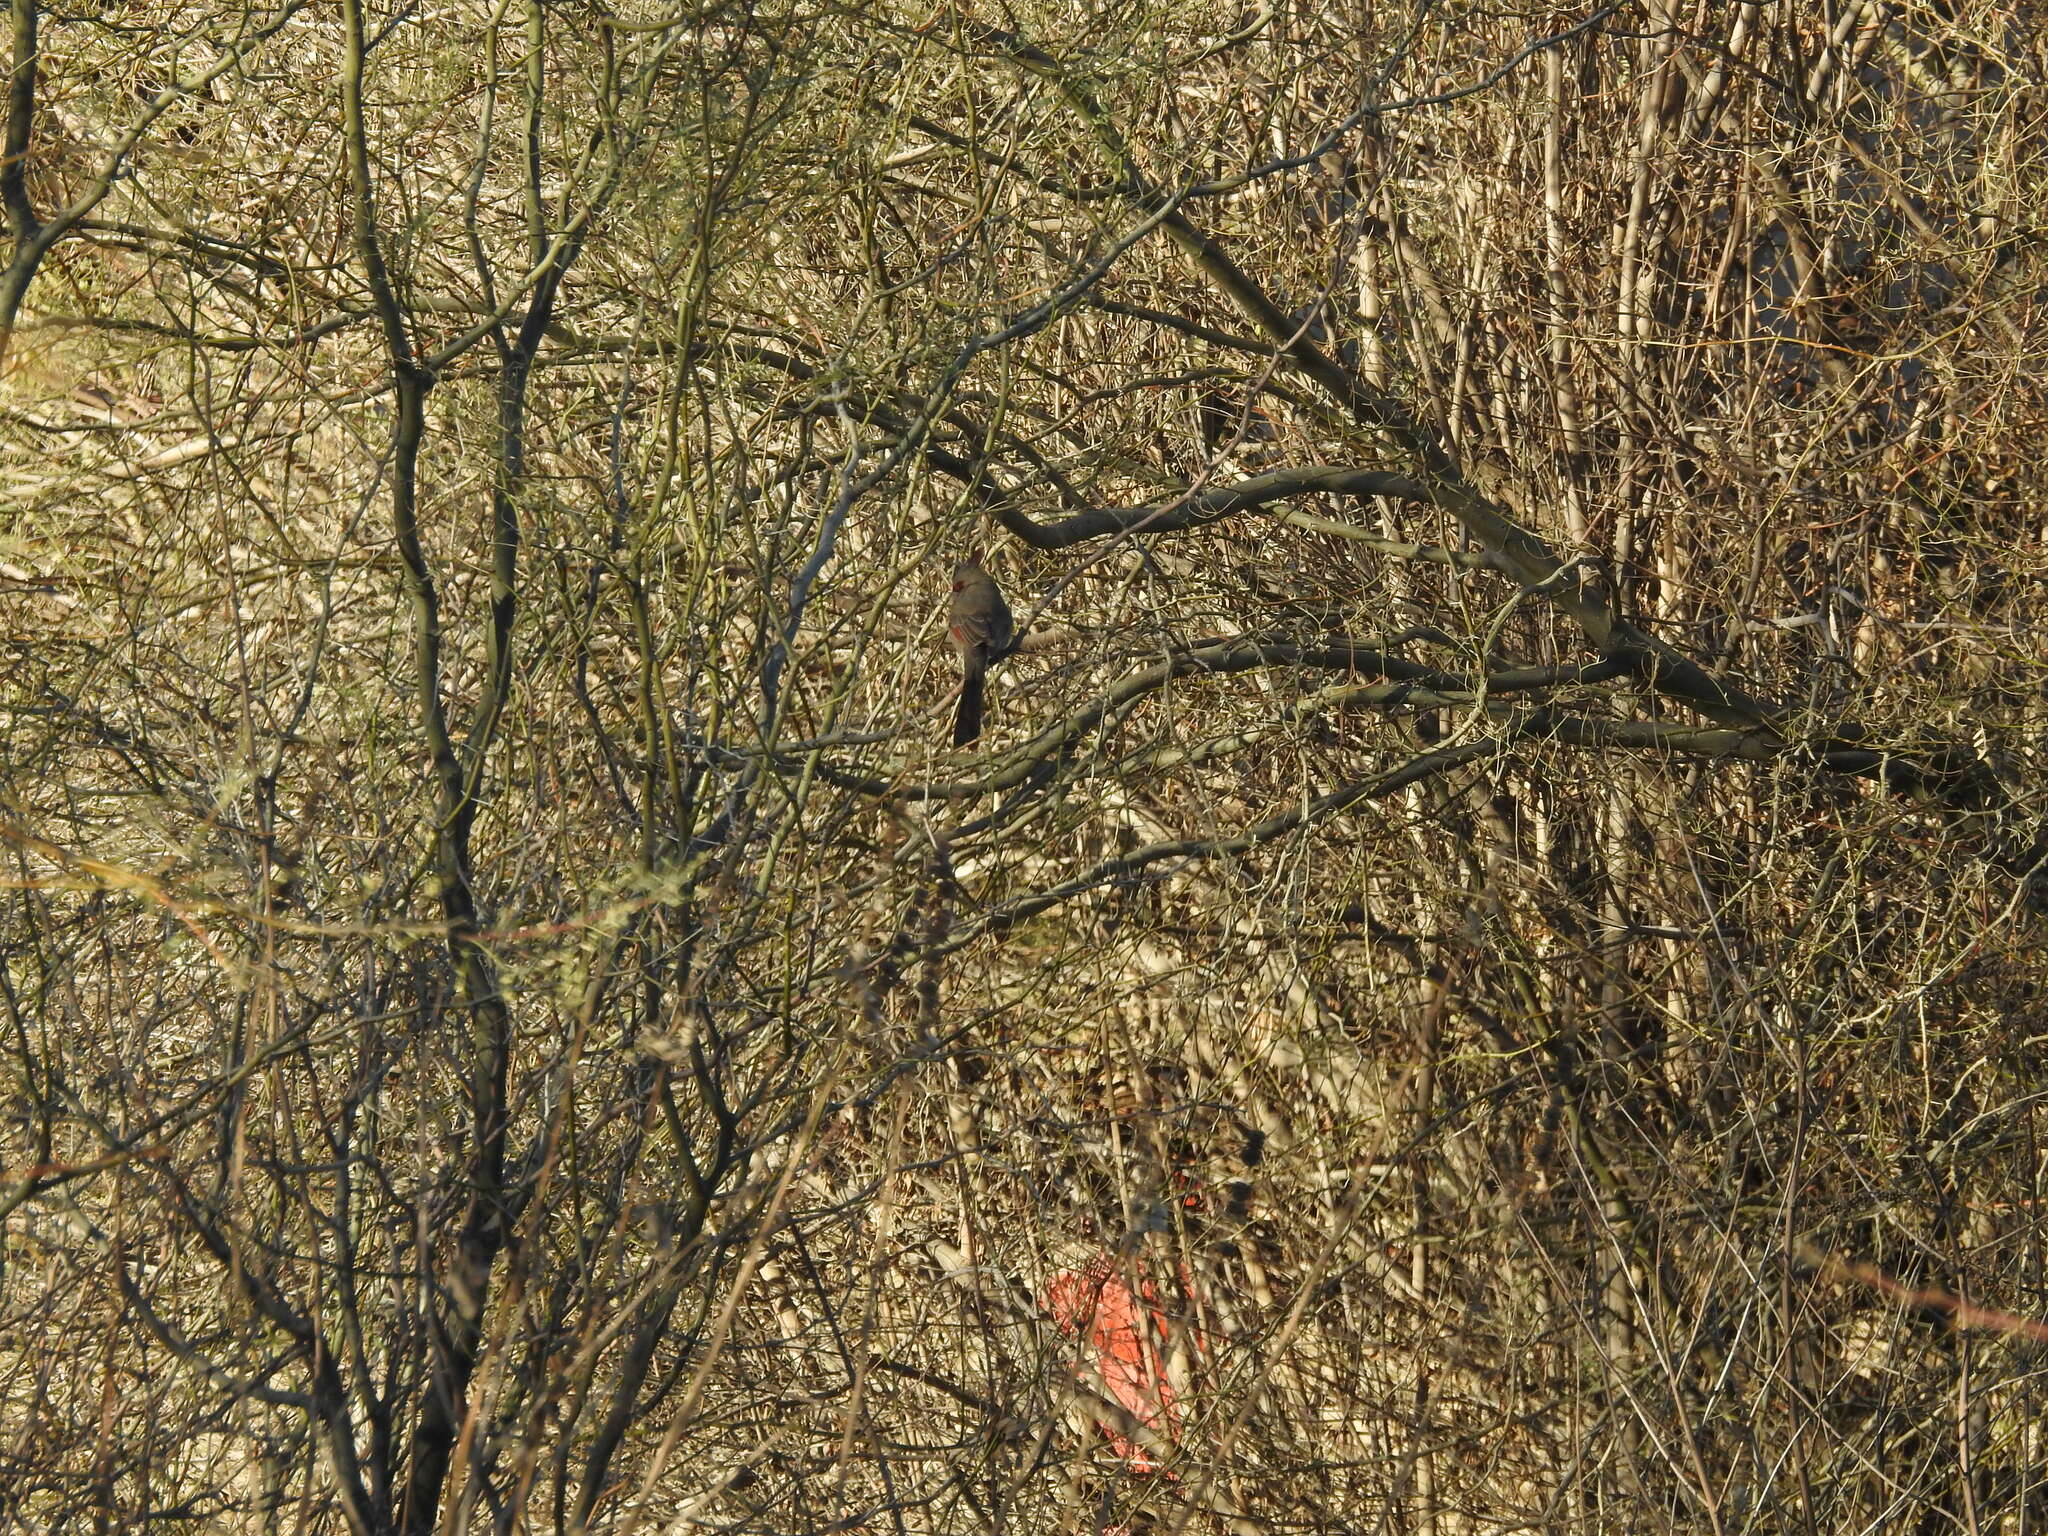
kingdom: Animalia
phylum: Chordata
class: Aves
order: Passeriformes
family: Cardinalidae
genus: Cardinalis
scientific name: Cardinalis sinuatus
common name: Pyrrhuloxia
